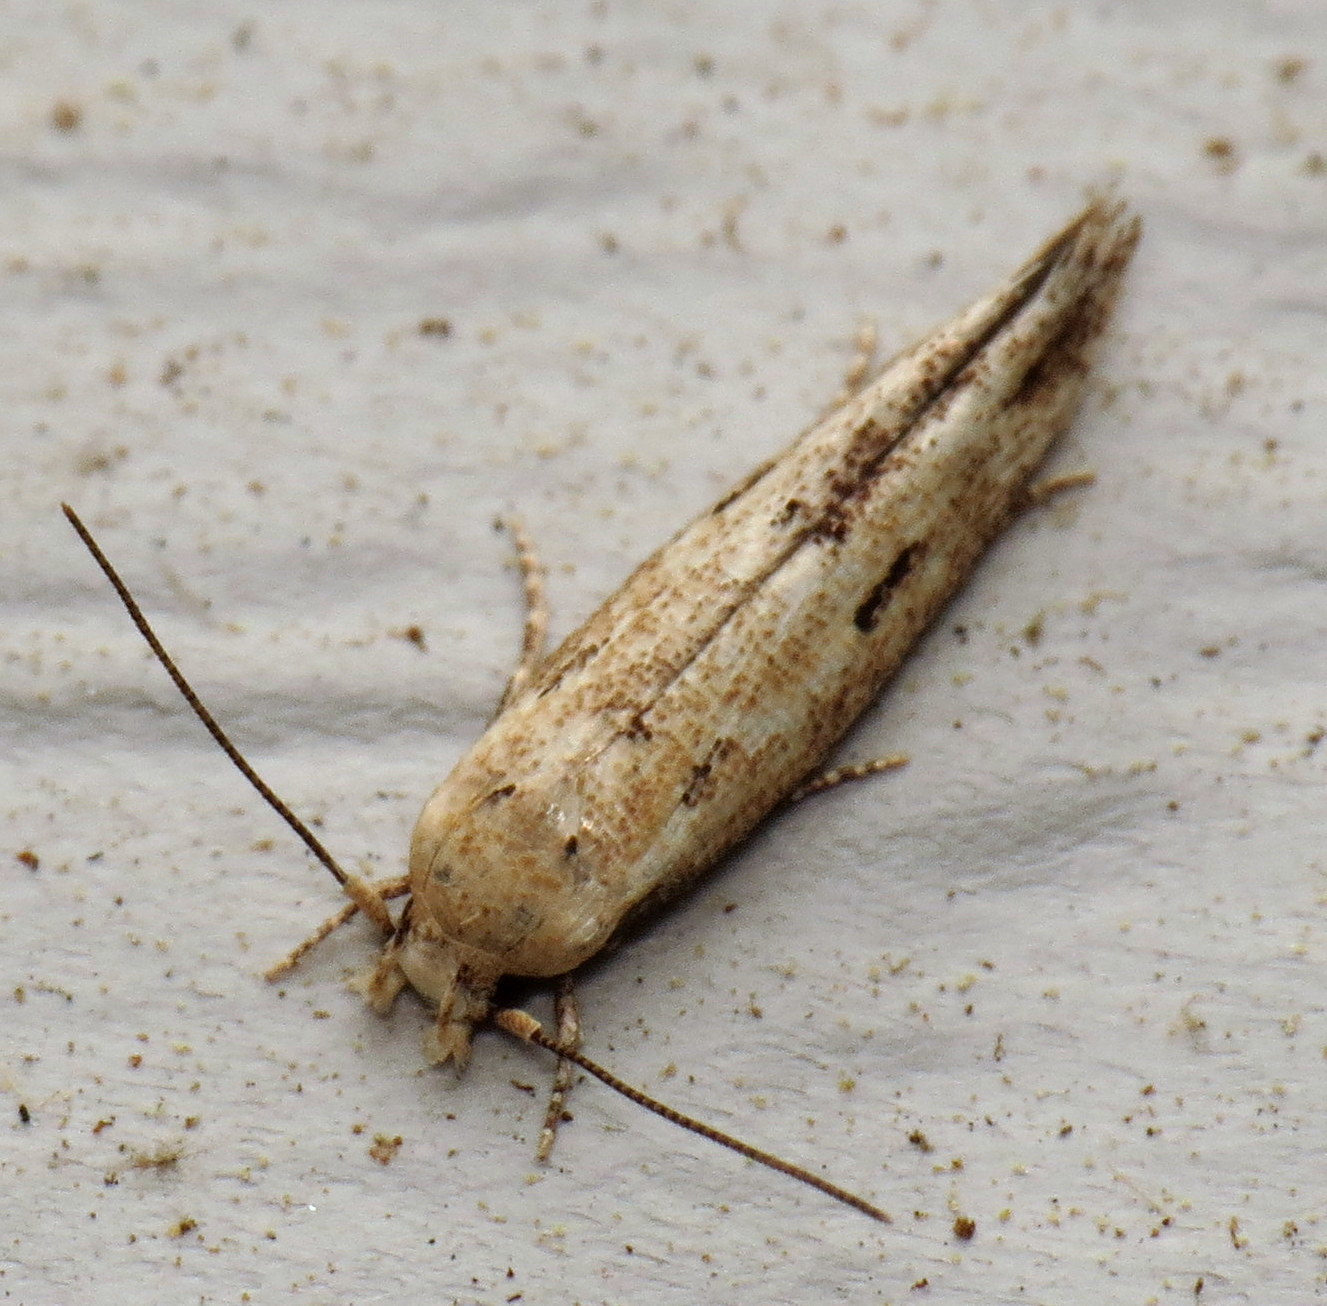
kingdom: Animalia
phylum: Arthropoda
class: Insecta
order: Lepidoptera
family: Momphidae
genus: Mompha
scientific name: Mompha brevivittella
